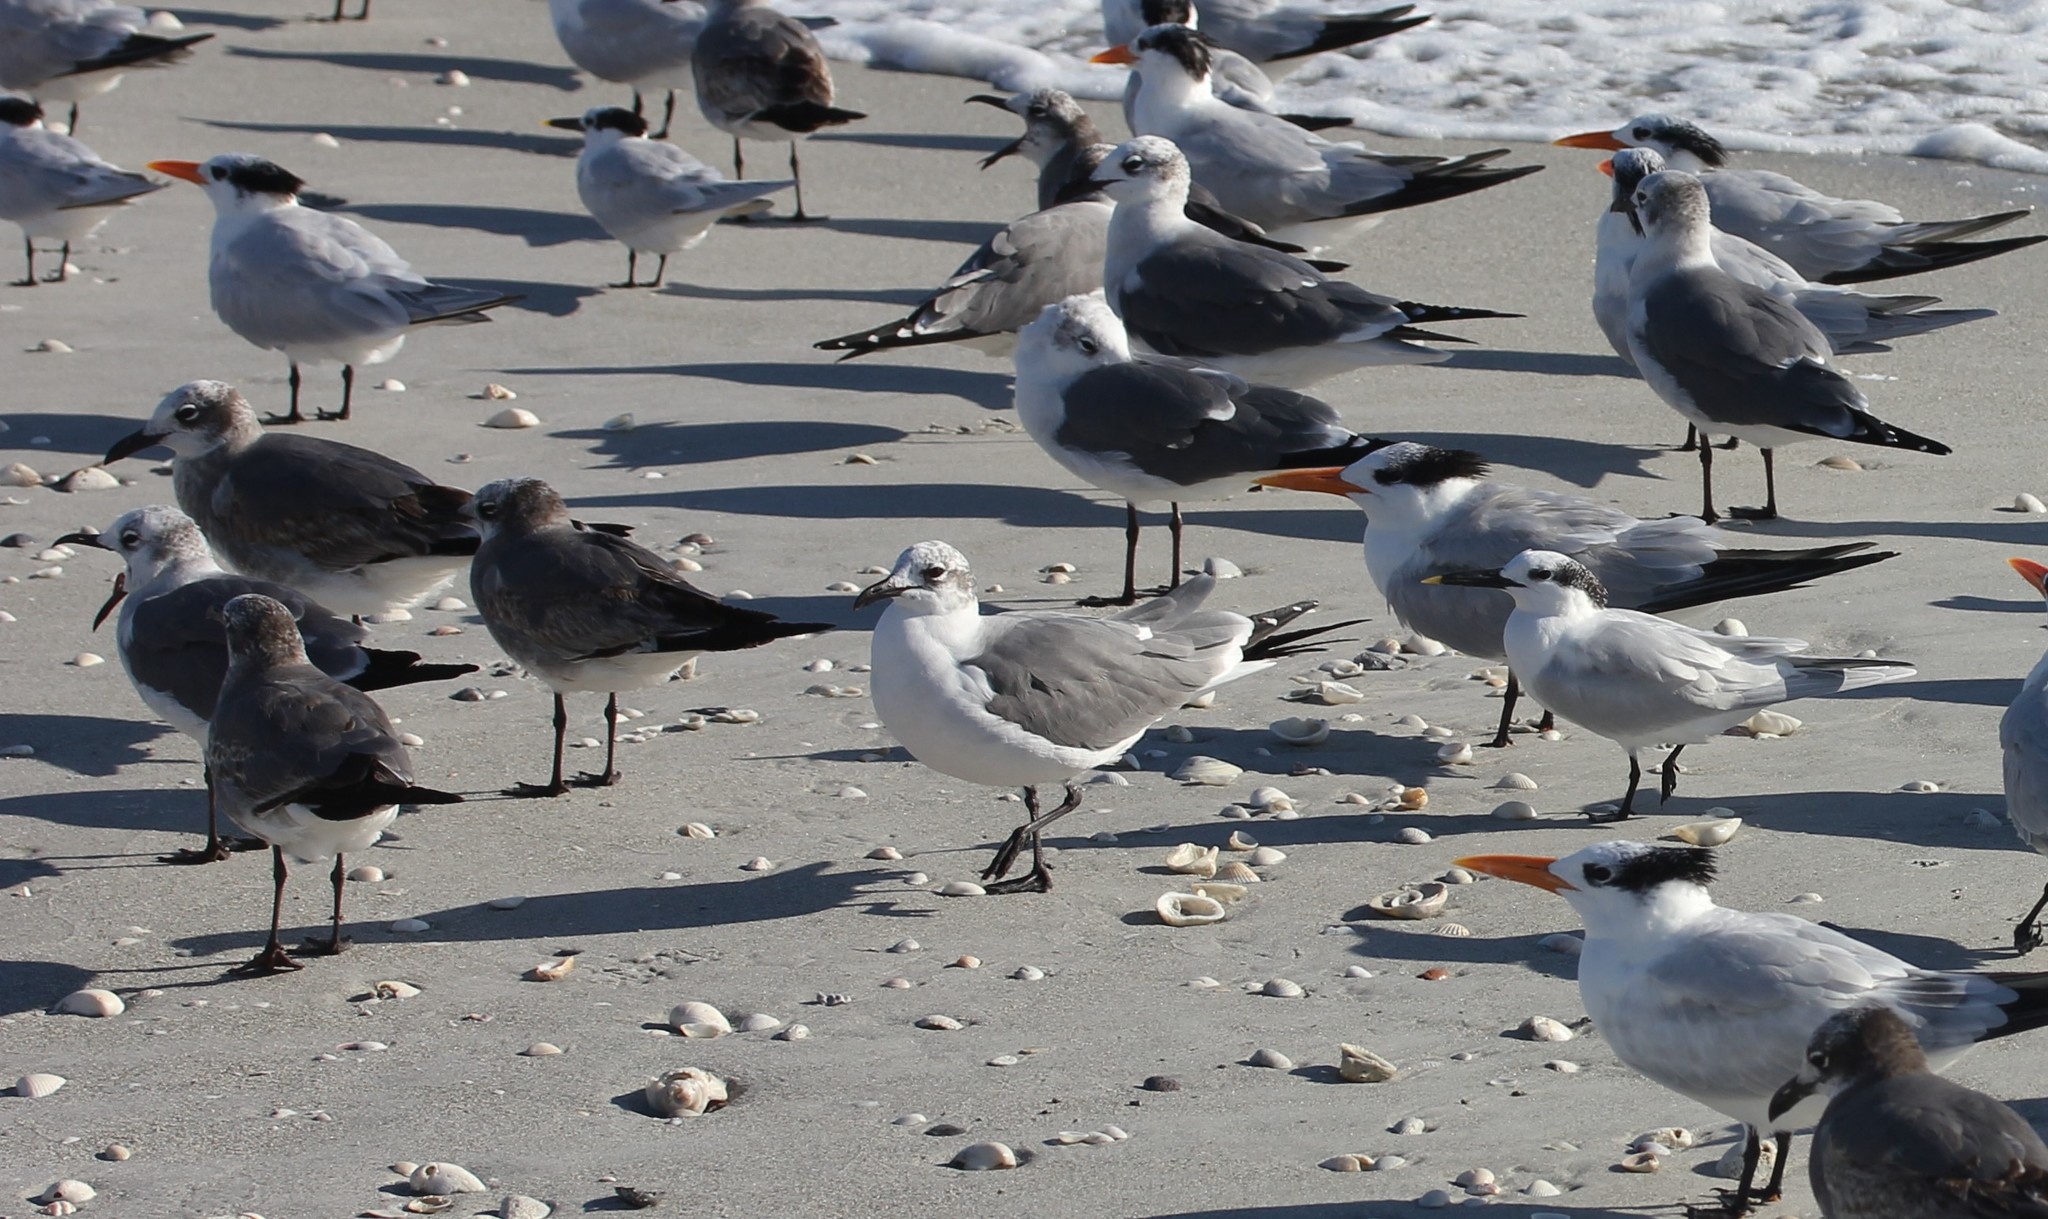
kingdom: Animalia
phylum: Chordata
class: Aves
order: Charadriiformes
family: Laridae
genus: Leucophaeus
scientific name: Leucophaeus atricilla
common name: Laughing gull
